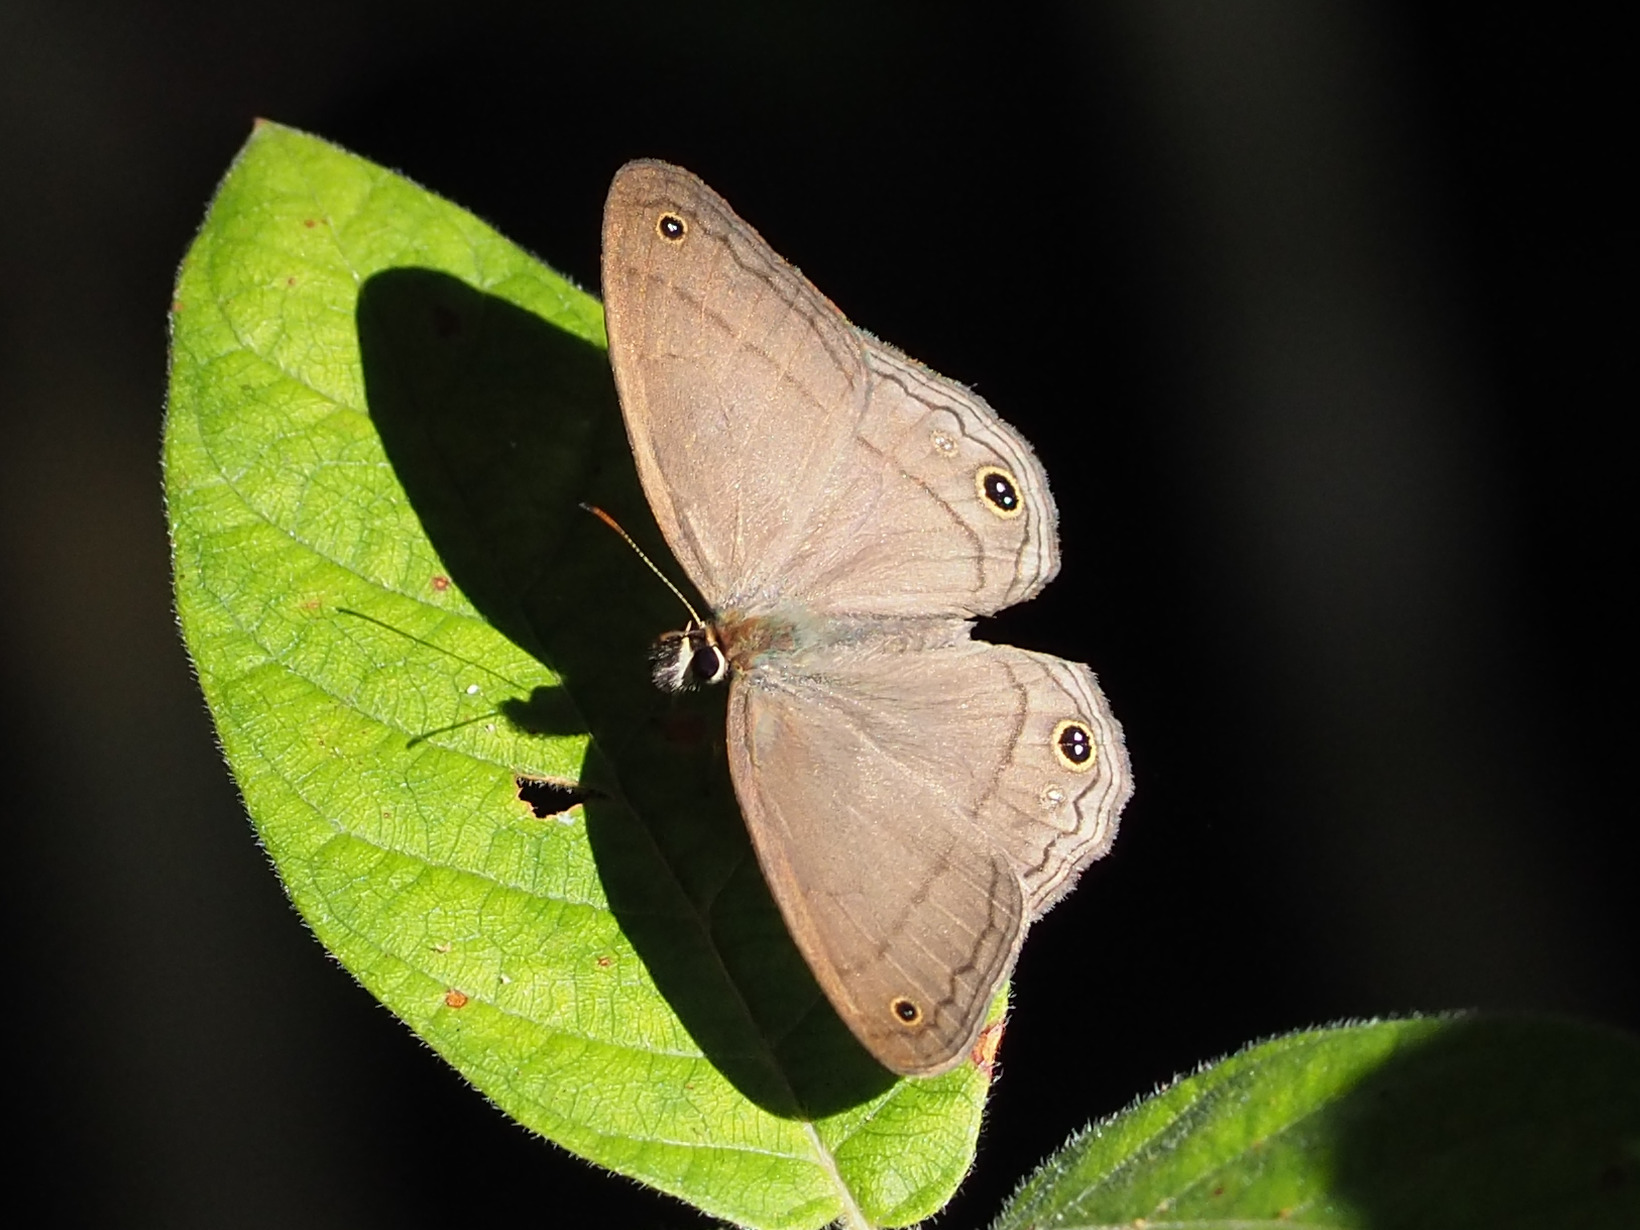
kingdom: Animalia
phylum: Arthropoda
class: Insecta
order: Lepidoptera
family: Nymphalidae
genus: Euptychia
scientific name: Euptychia Cissia pompilia
